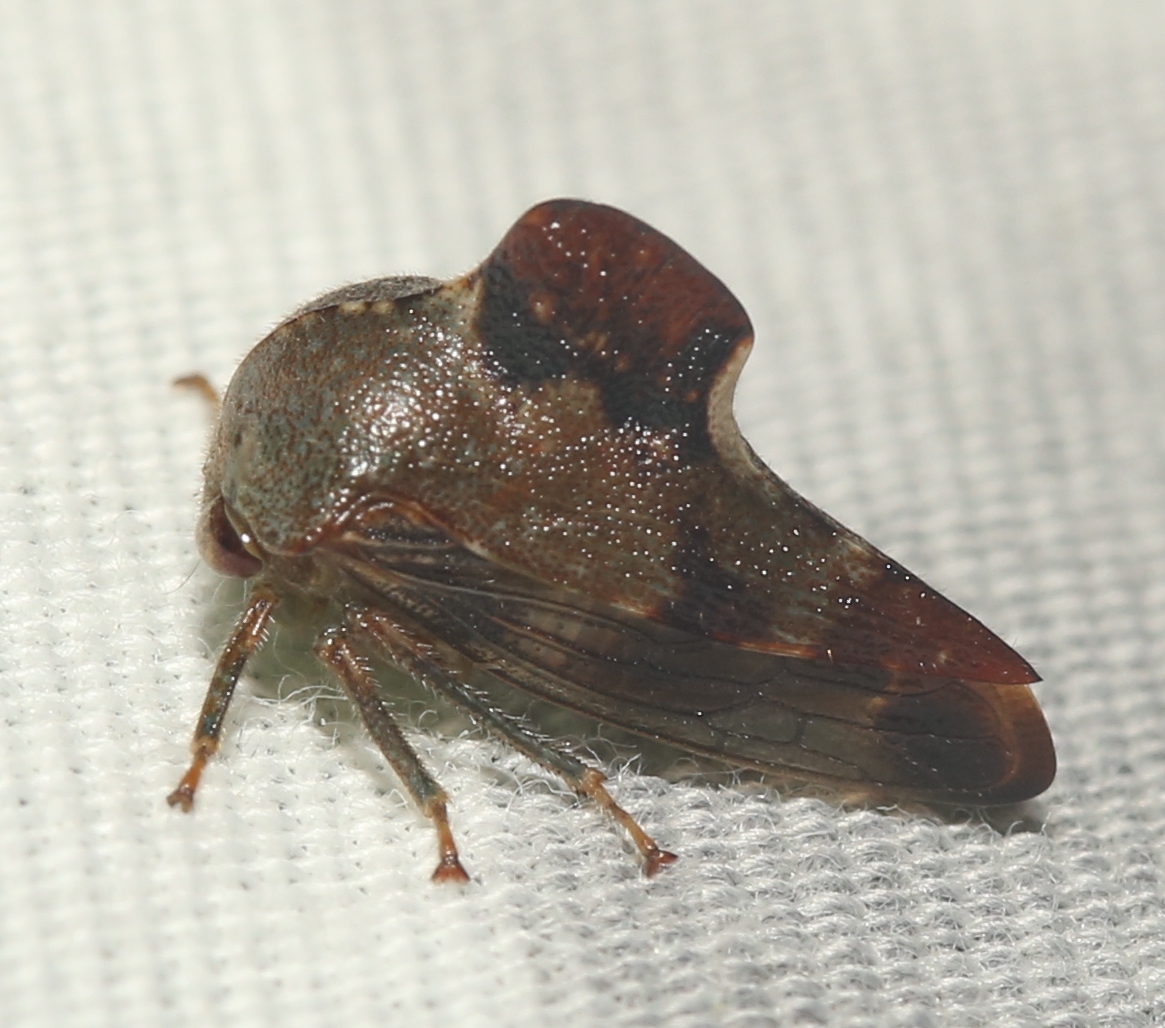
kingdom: Animalia
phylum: Arthropoda
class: Insecta
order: Hemiptera
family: Membracidae
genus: Telamona
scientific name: Telamona decorata
